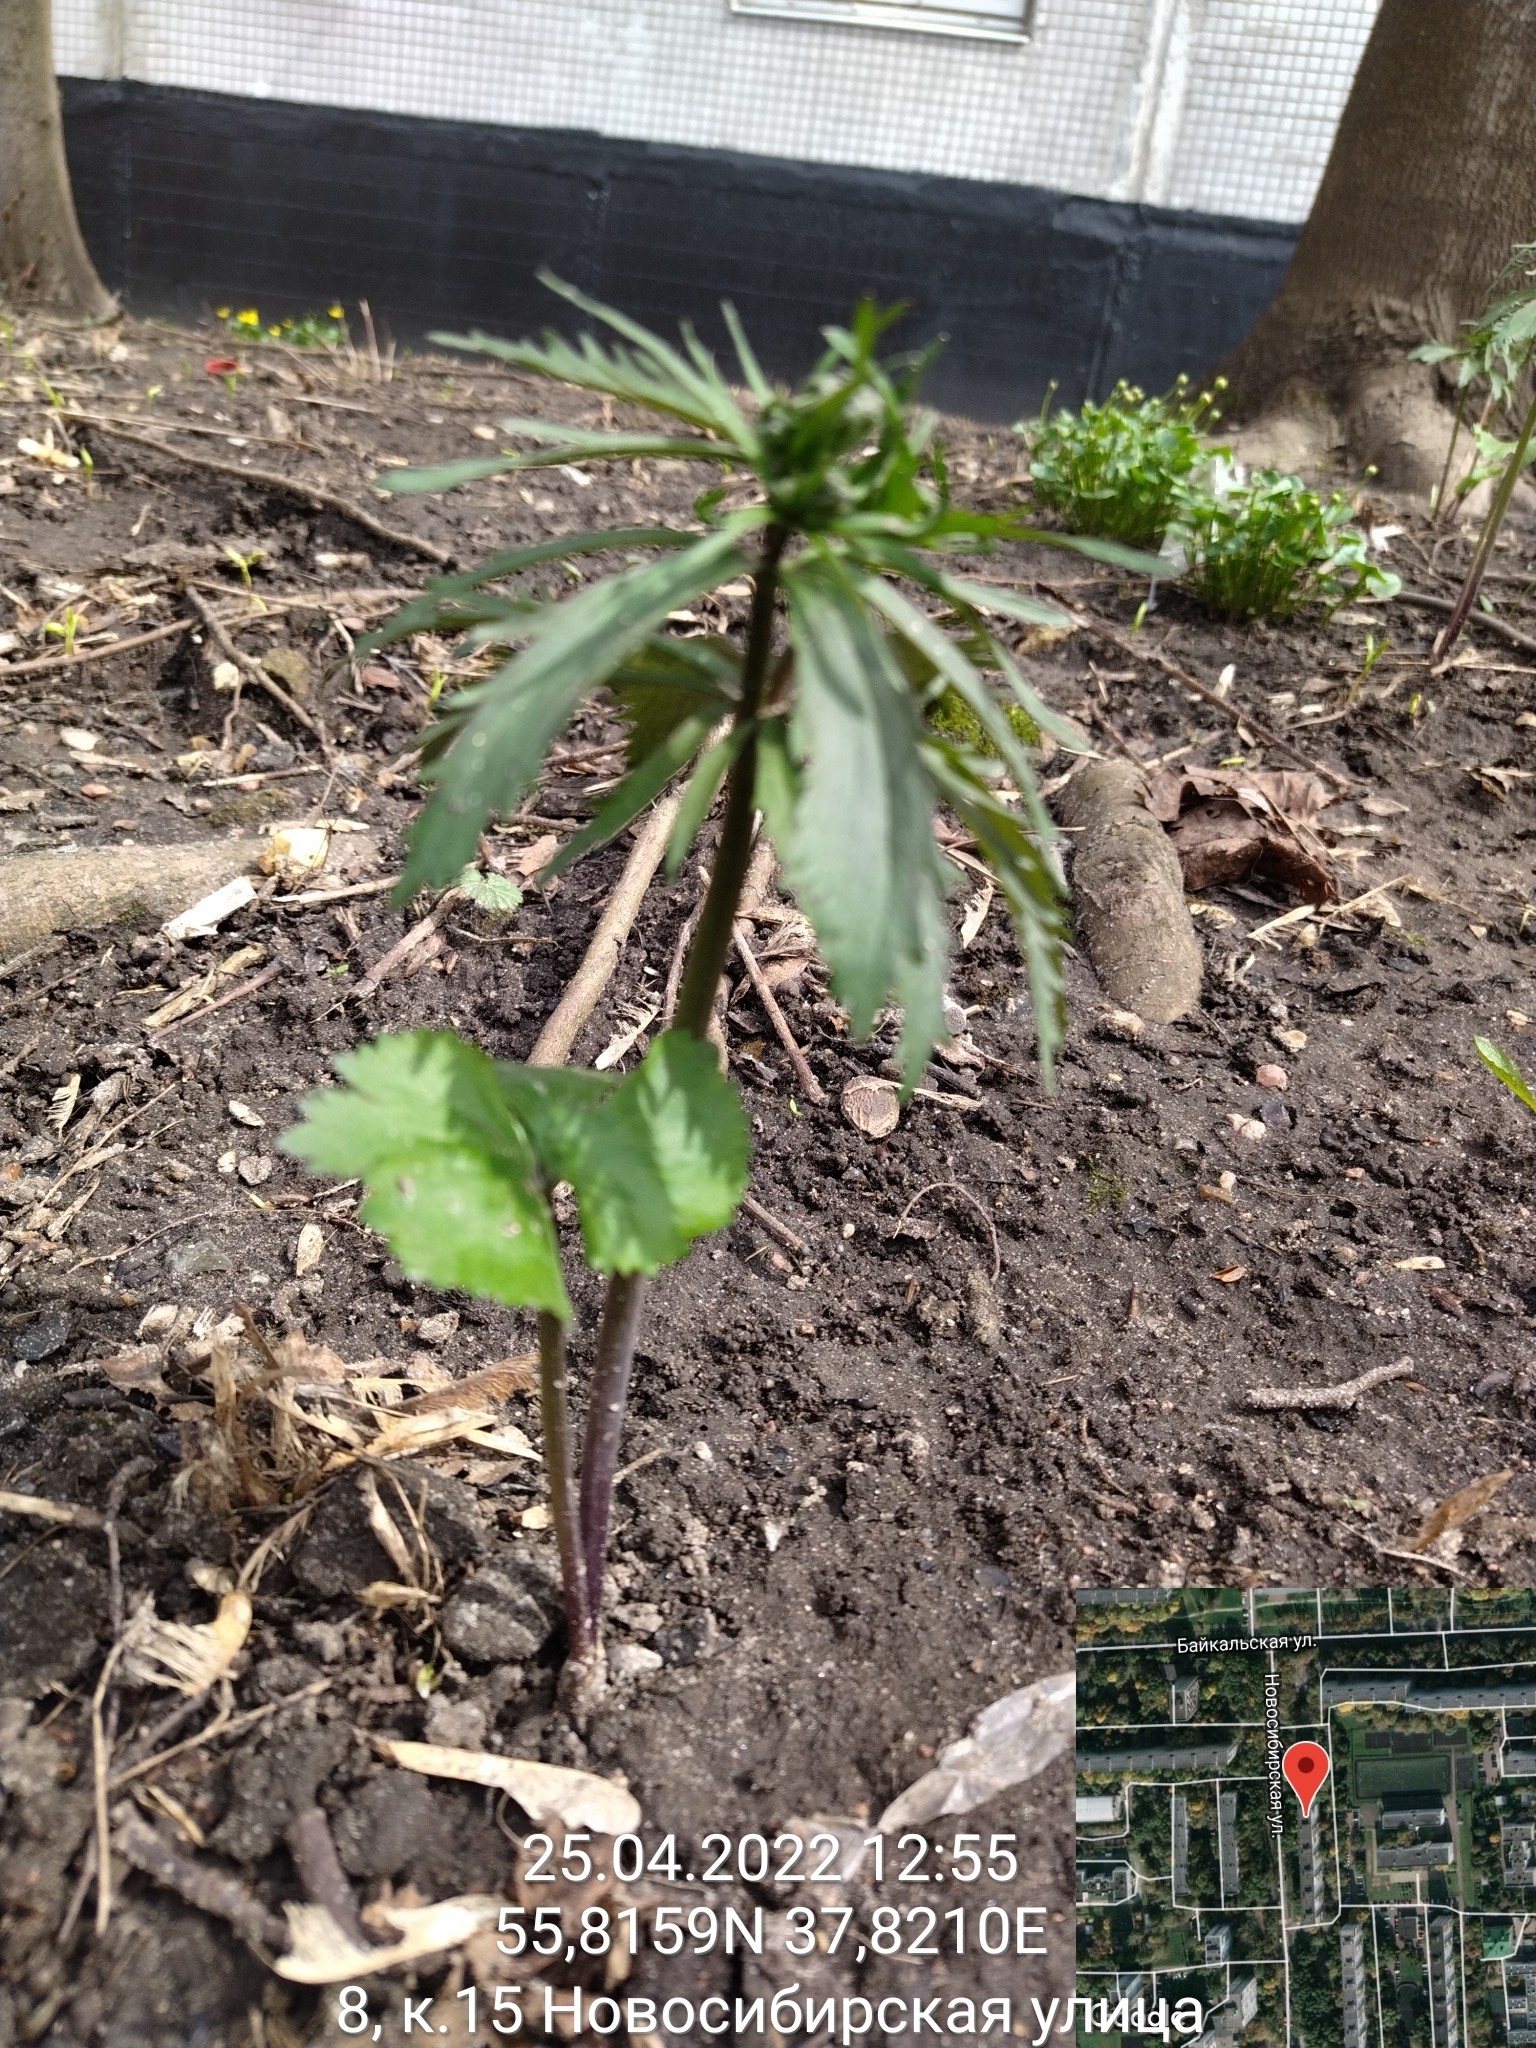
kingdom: Plantae
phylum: Tracheophyta
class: Magnoliopsida
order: Ranunculales
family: Ranunculaceae
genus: Ranunculus
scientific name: Ranunculus cassubicus
